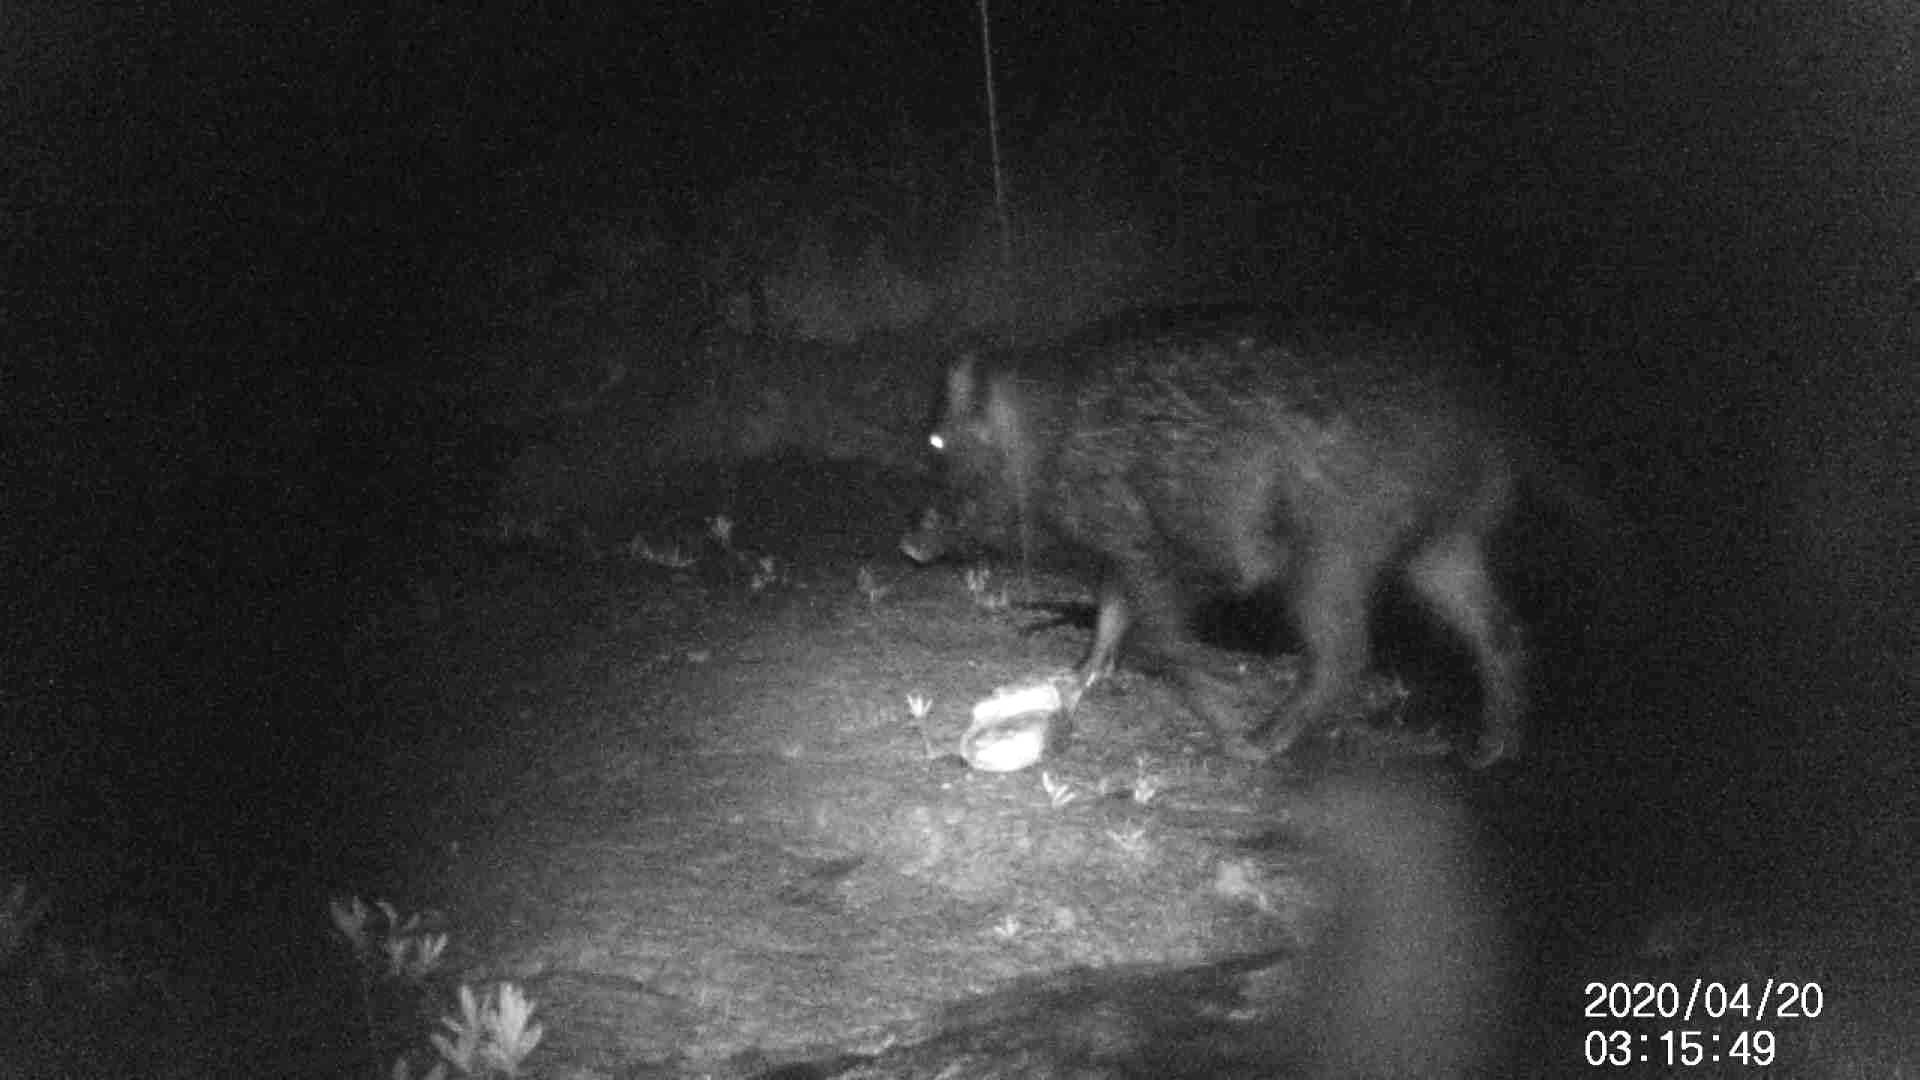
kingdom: Animalia
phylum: Chordata
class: Mammalia
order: Artiodactyla
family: Suidae
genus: Sus
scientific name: Sus scrofa
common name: Wild boar
